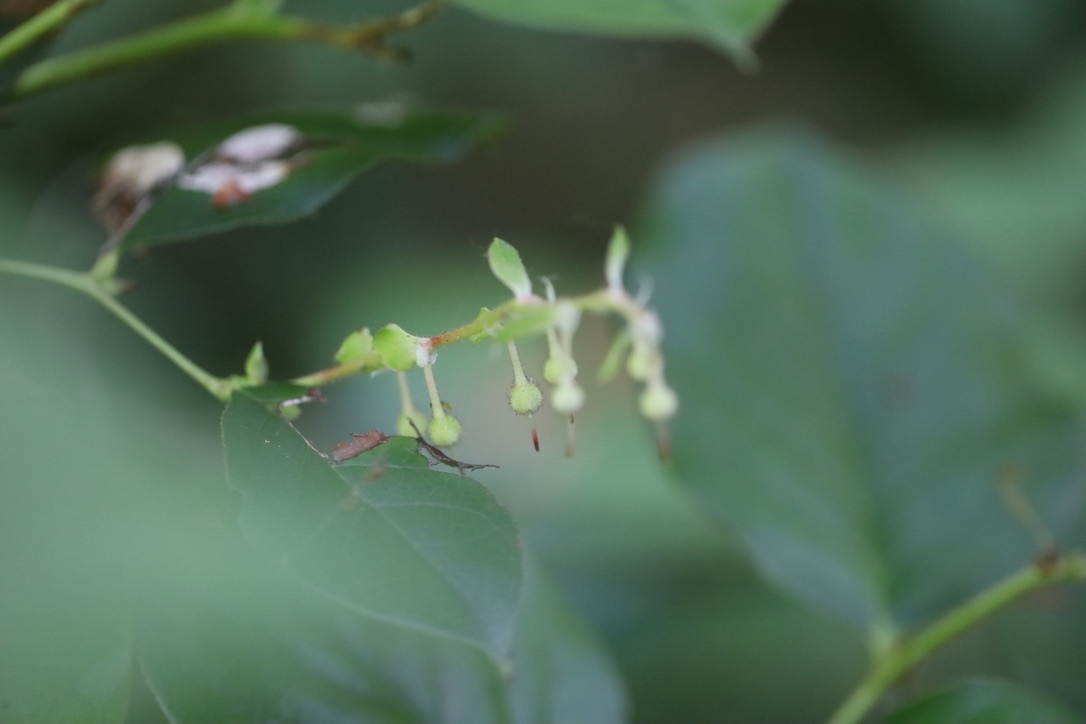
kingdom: Plantae
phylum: Tracheophyta
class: Magnoliopsida
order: Ericales
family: Ericaceae
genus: Gaultheria
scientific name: Gaultheria shallon
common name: Shallon
